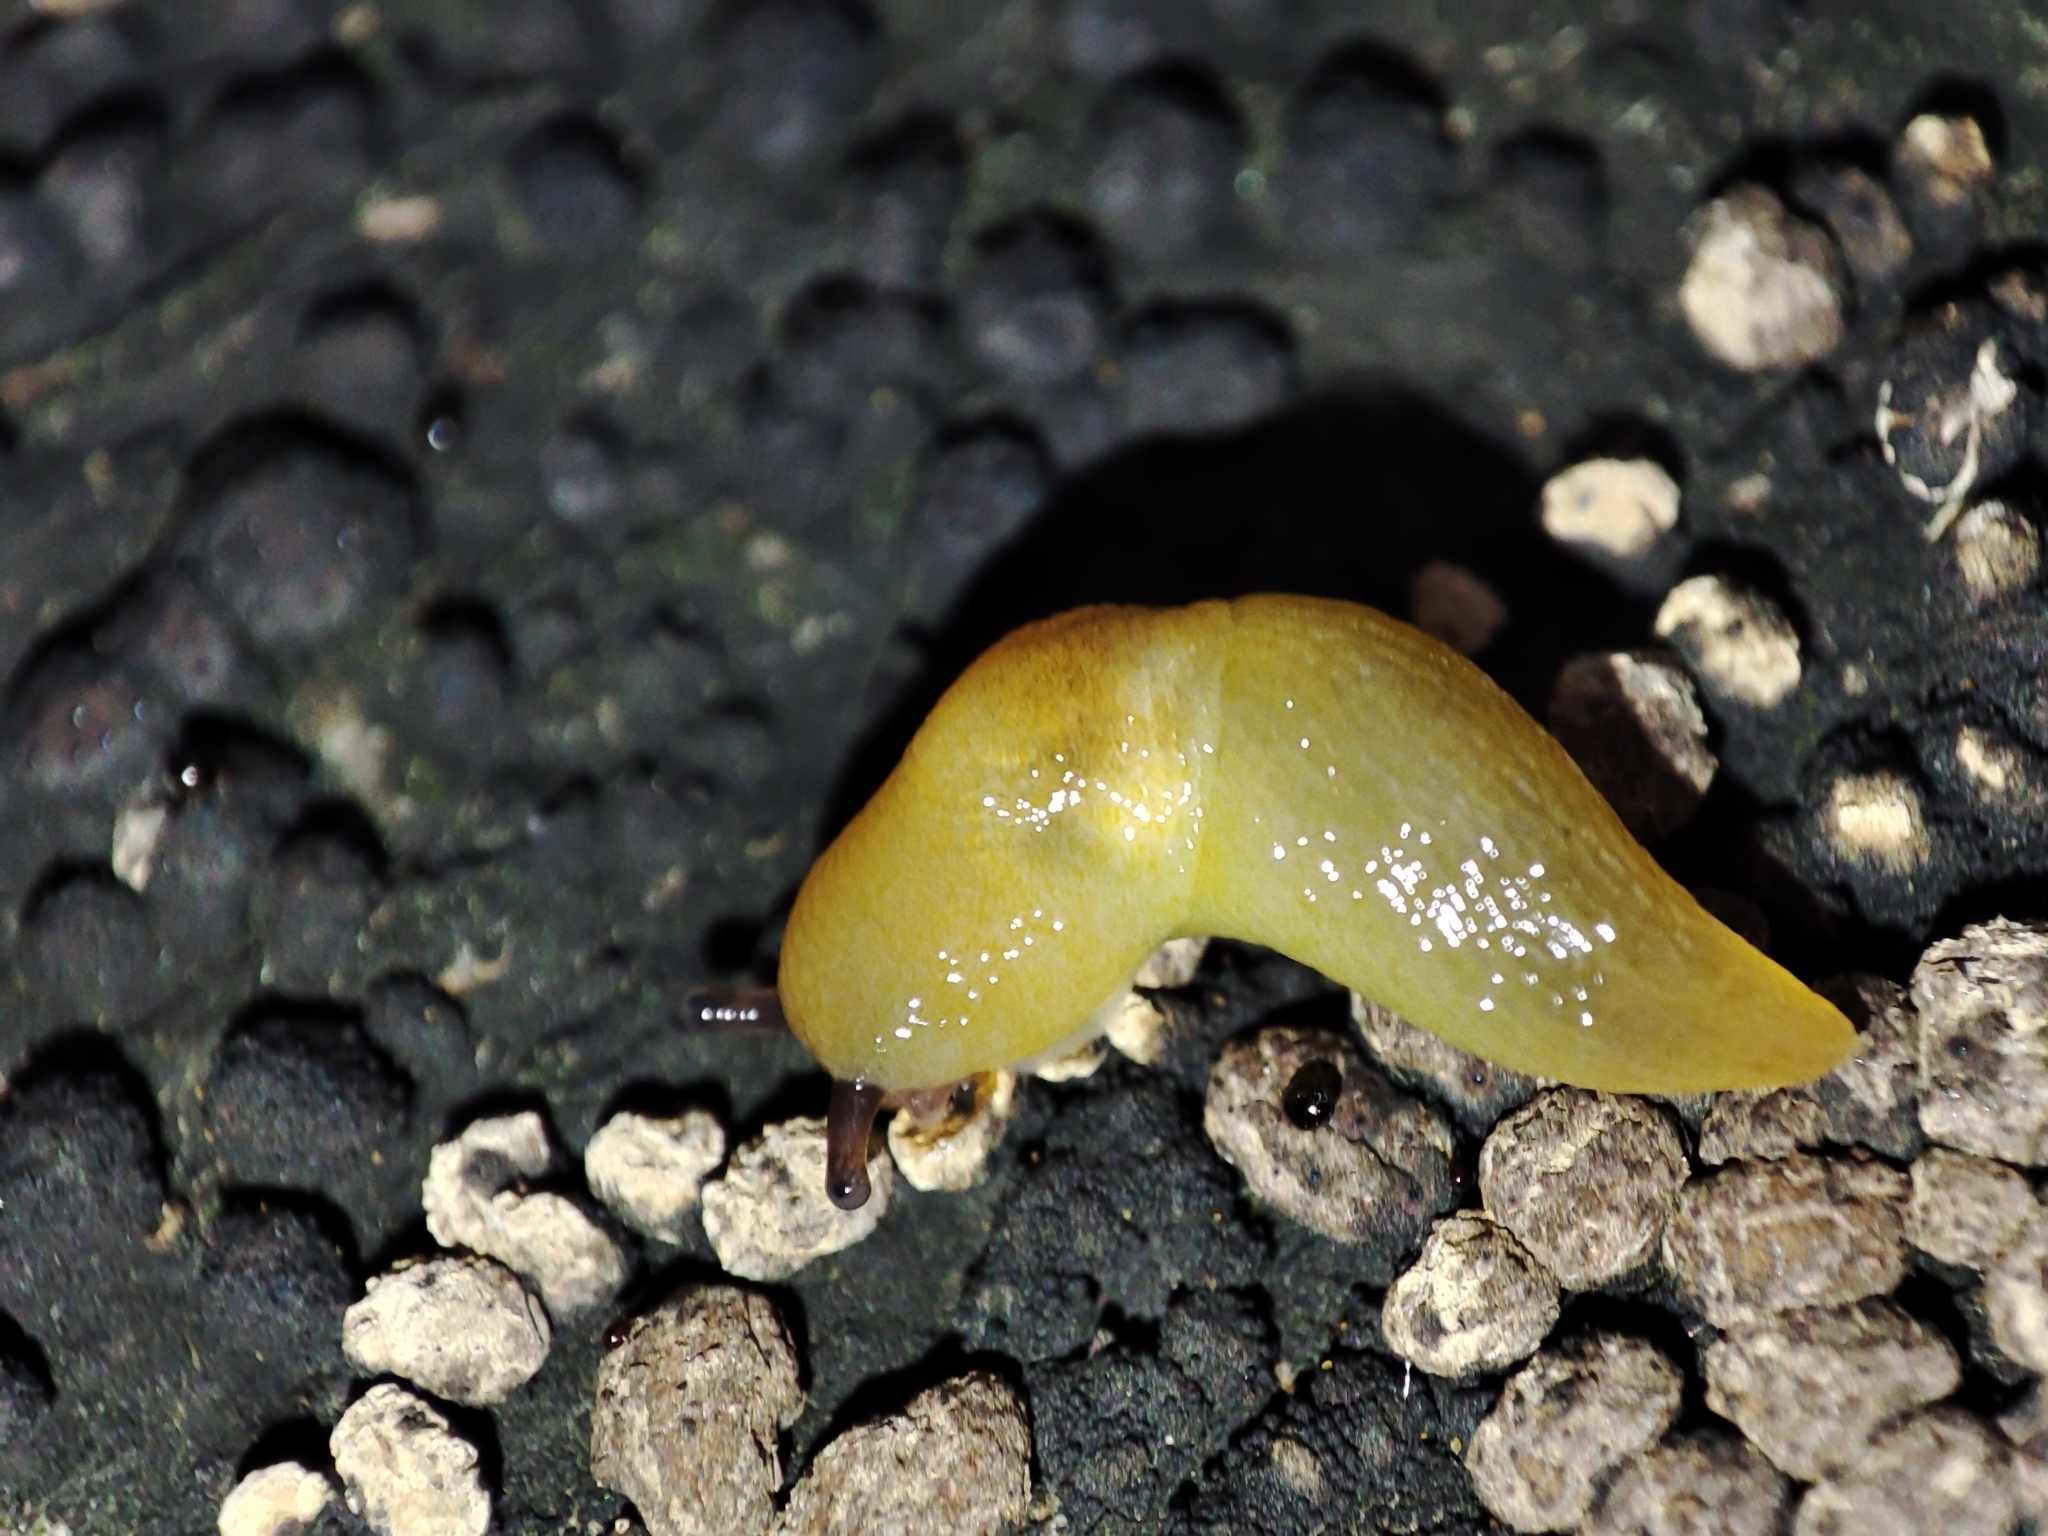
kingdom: Animalia
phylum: Mollusca
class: Gastropoda
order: Stylommatophora
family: Limacidae
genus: Malacolimax
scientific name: Malacolimax tenellus
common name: Lemon slug
